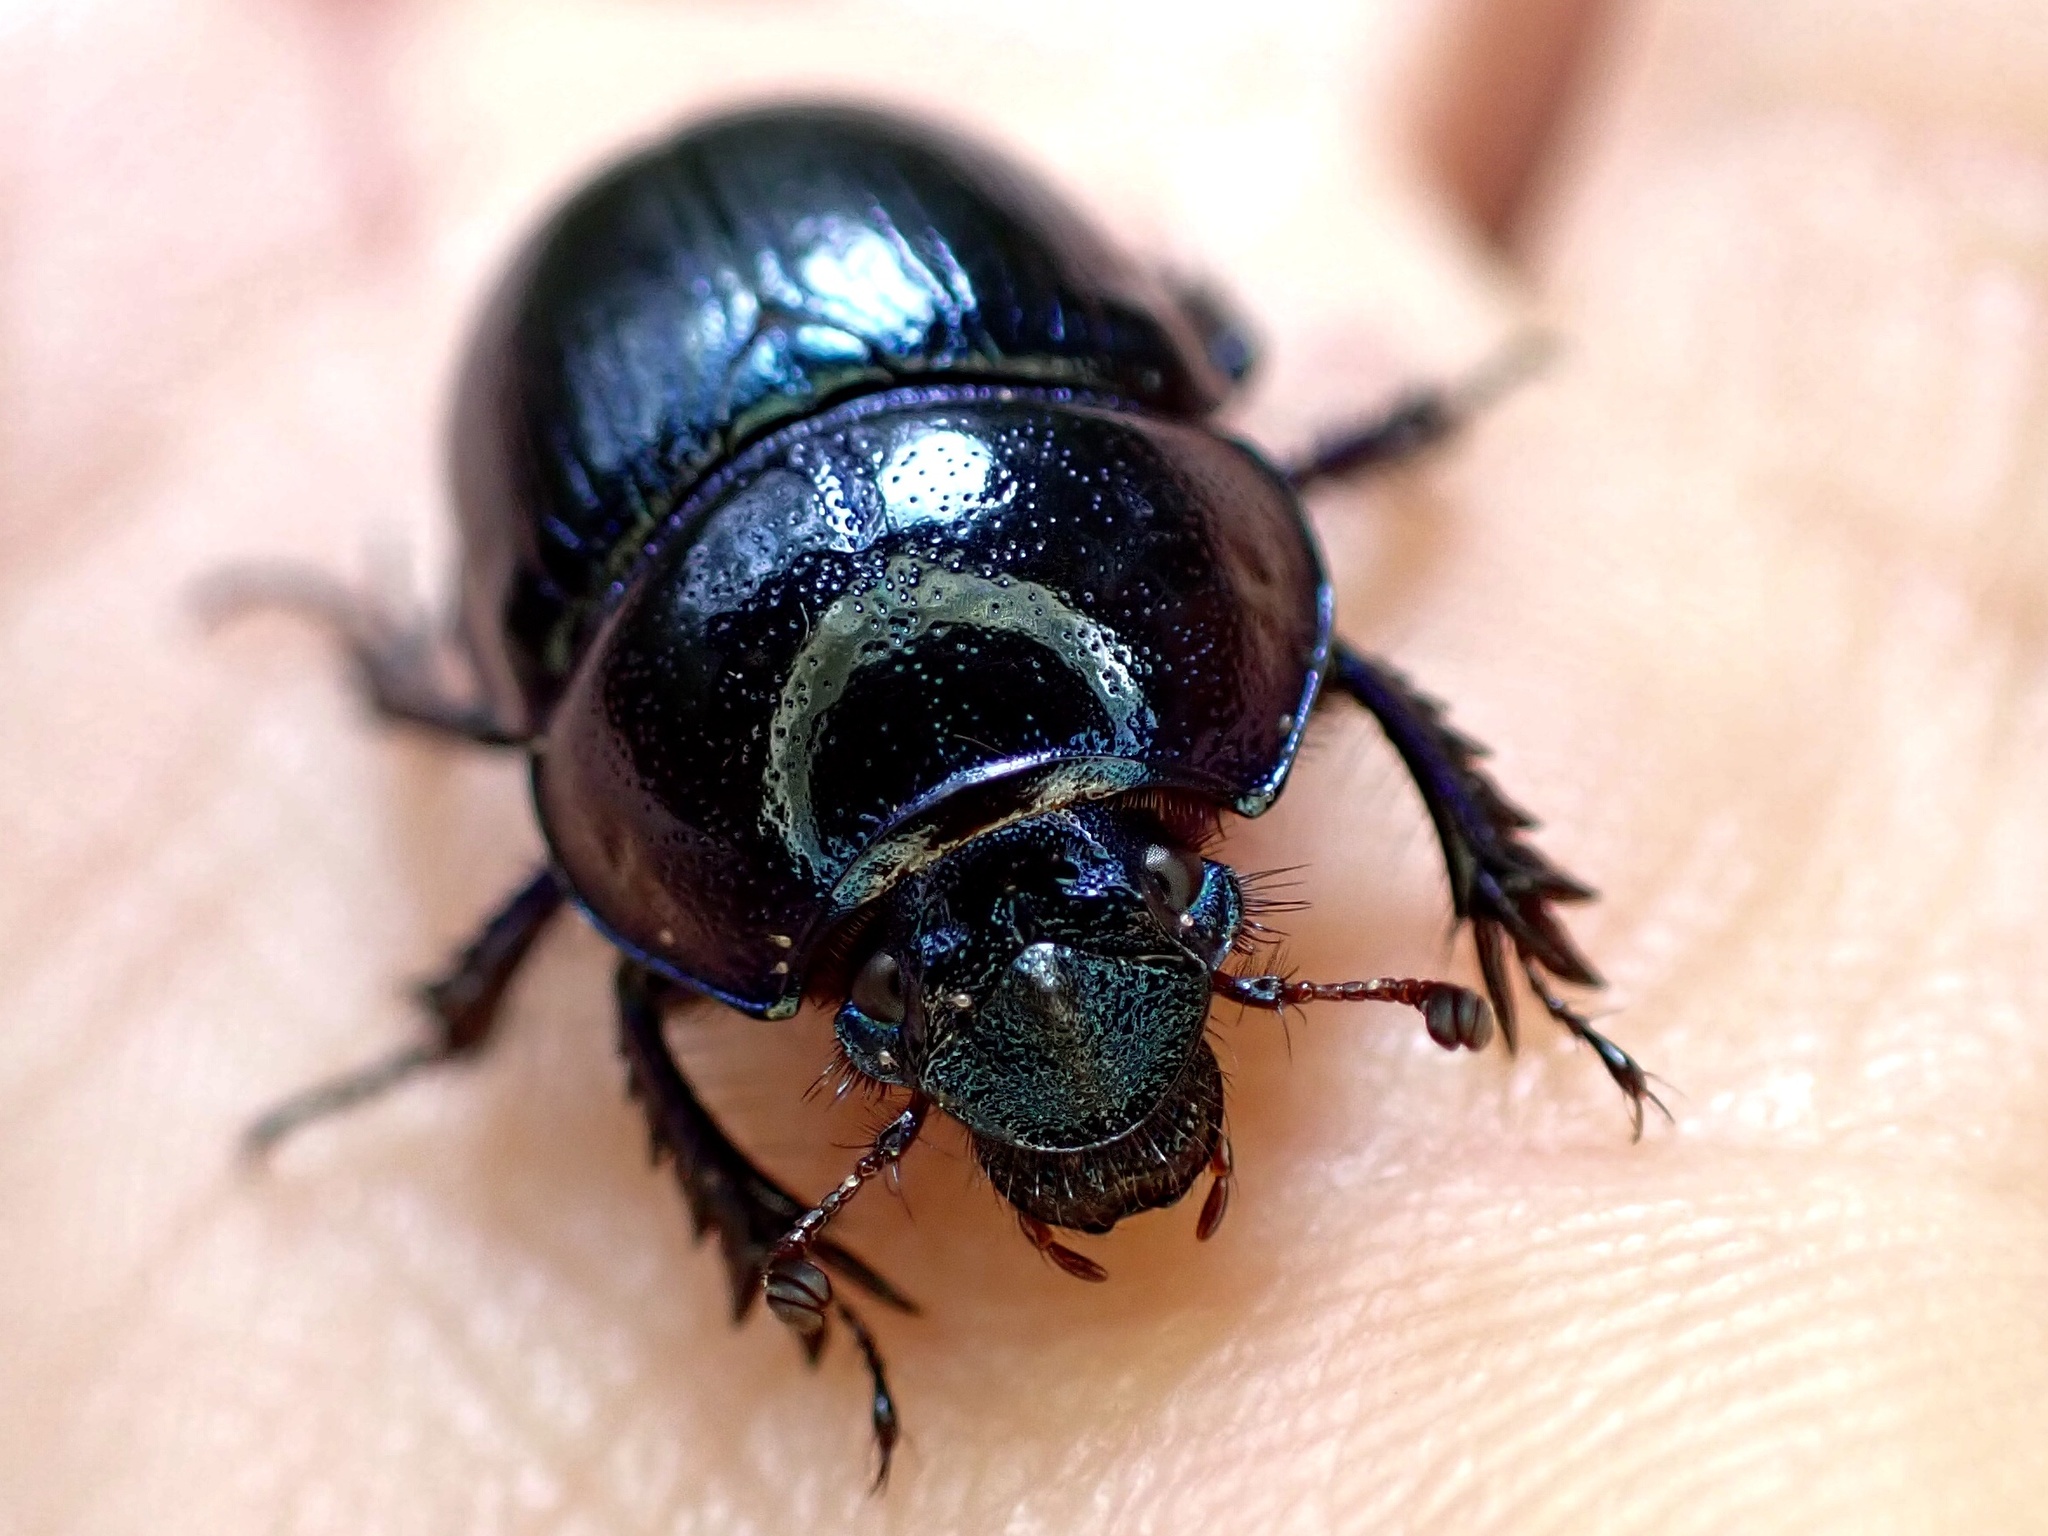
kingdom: Animalia
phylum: Arthropoda
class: Insecta
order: Coleoptera
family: Geotrupidae
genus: Anoplotrupes
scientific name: Anoplotrupes stercorosus
